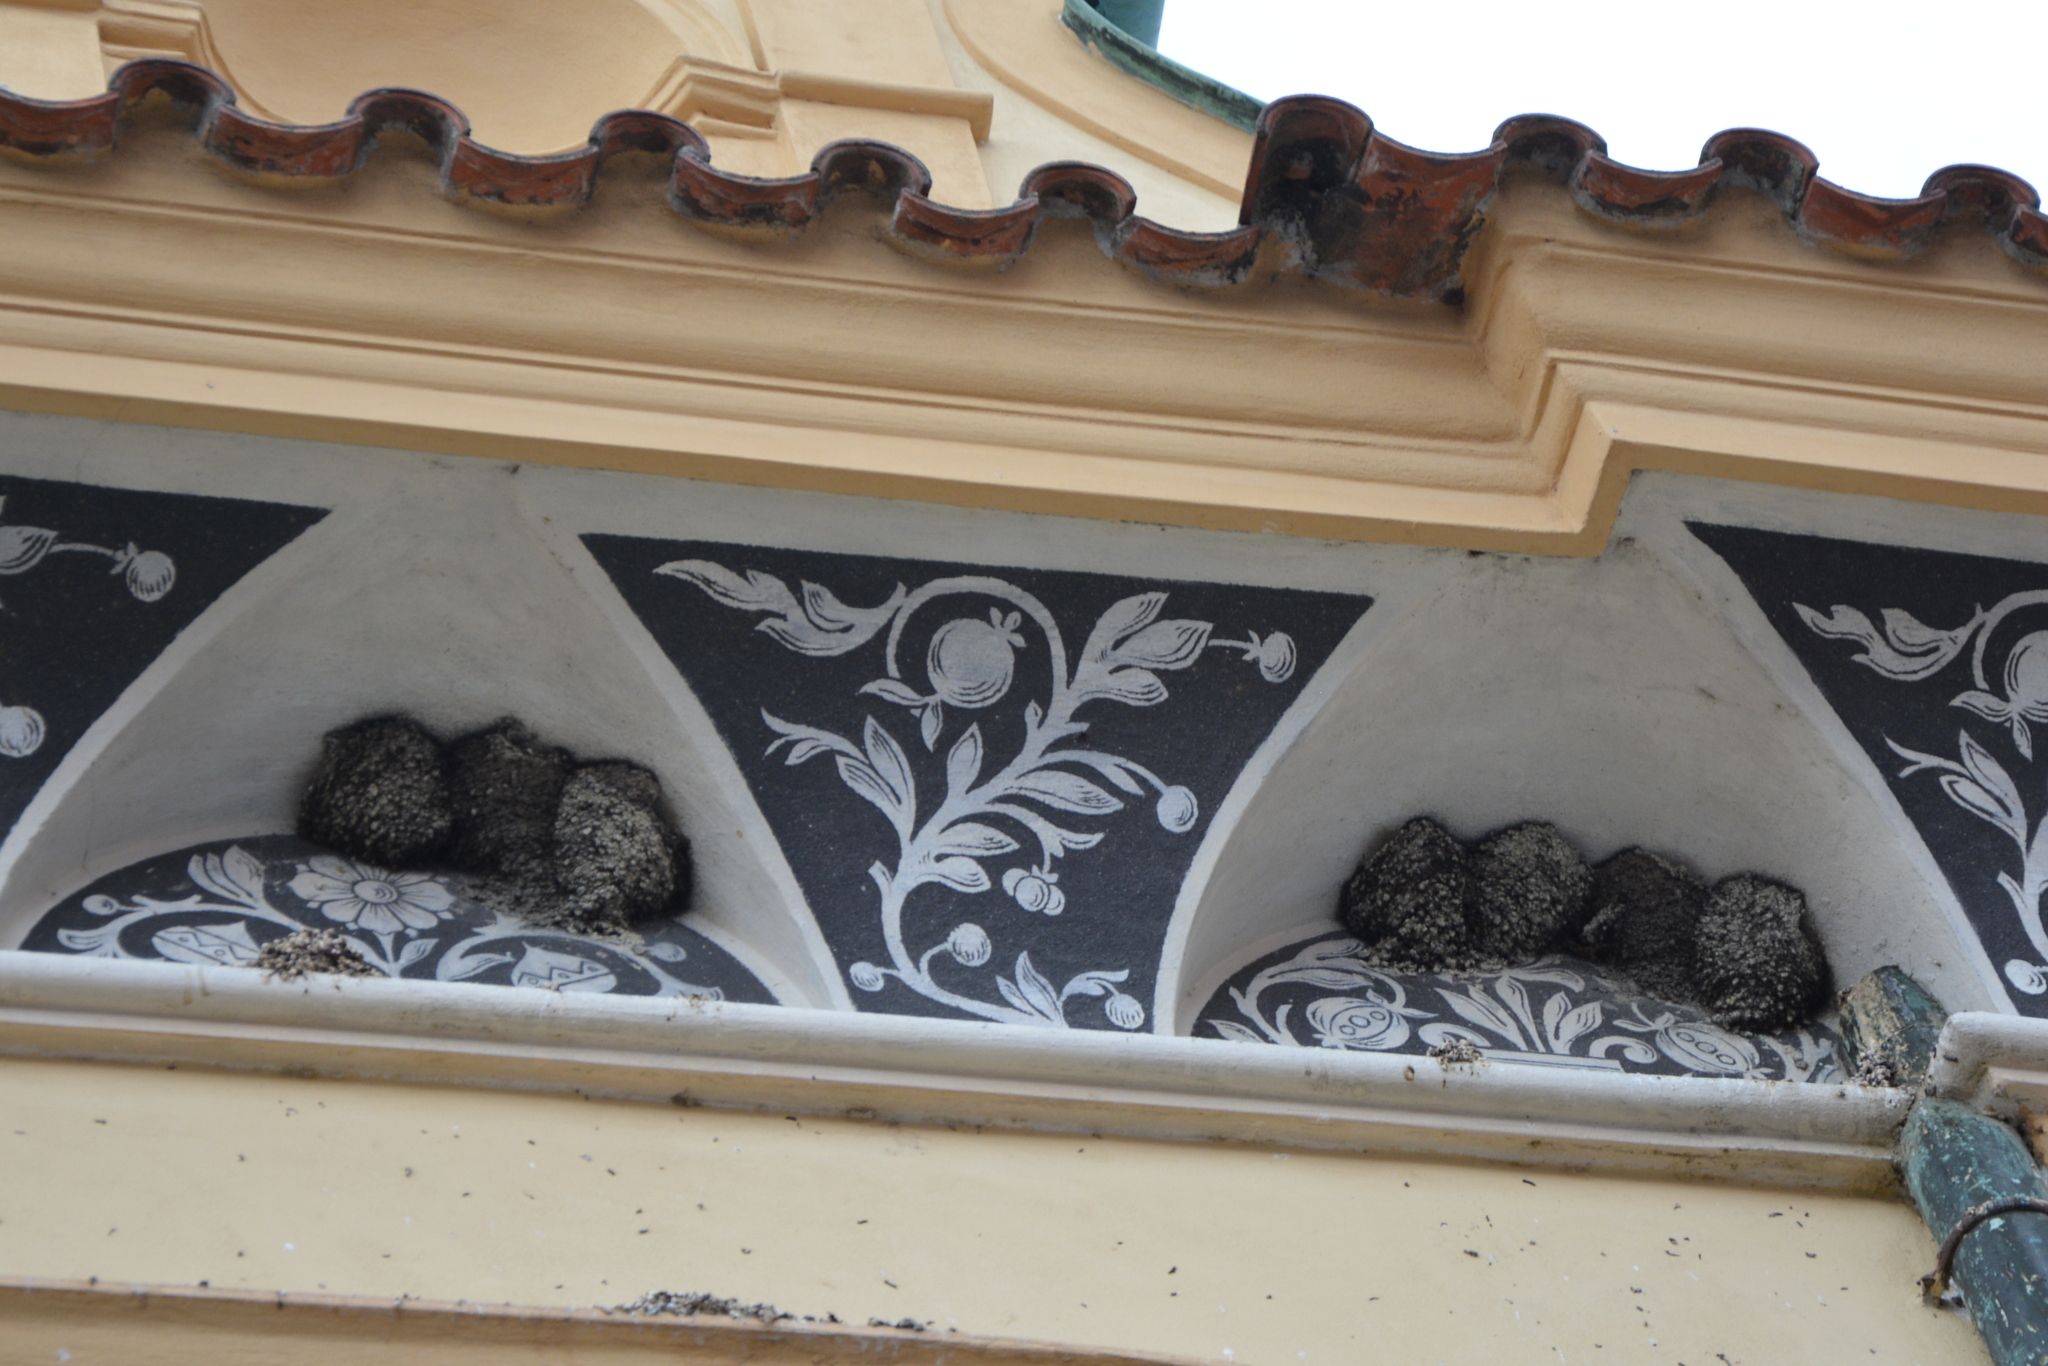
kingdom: Animalia
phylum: Chordata
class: Aves
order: Passeriformes
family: Hirundinidae
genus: Delichon
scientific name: Delichon urbicum
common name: Common house martin
